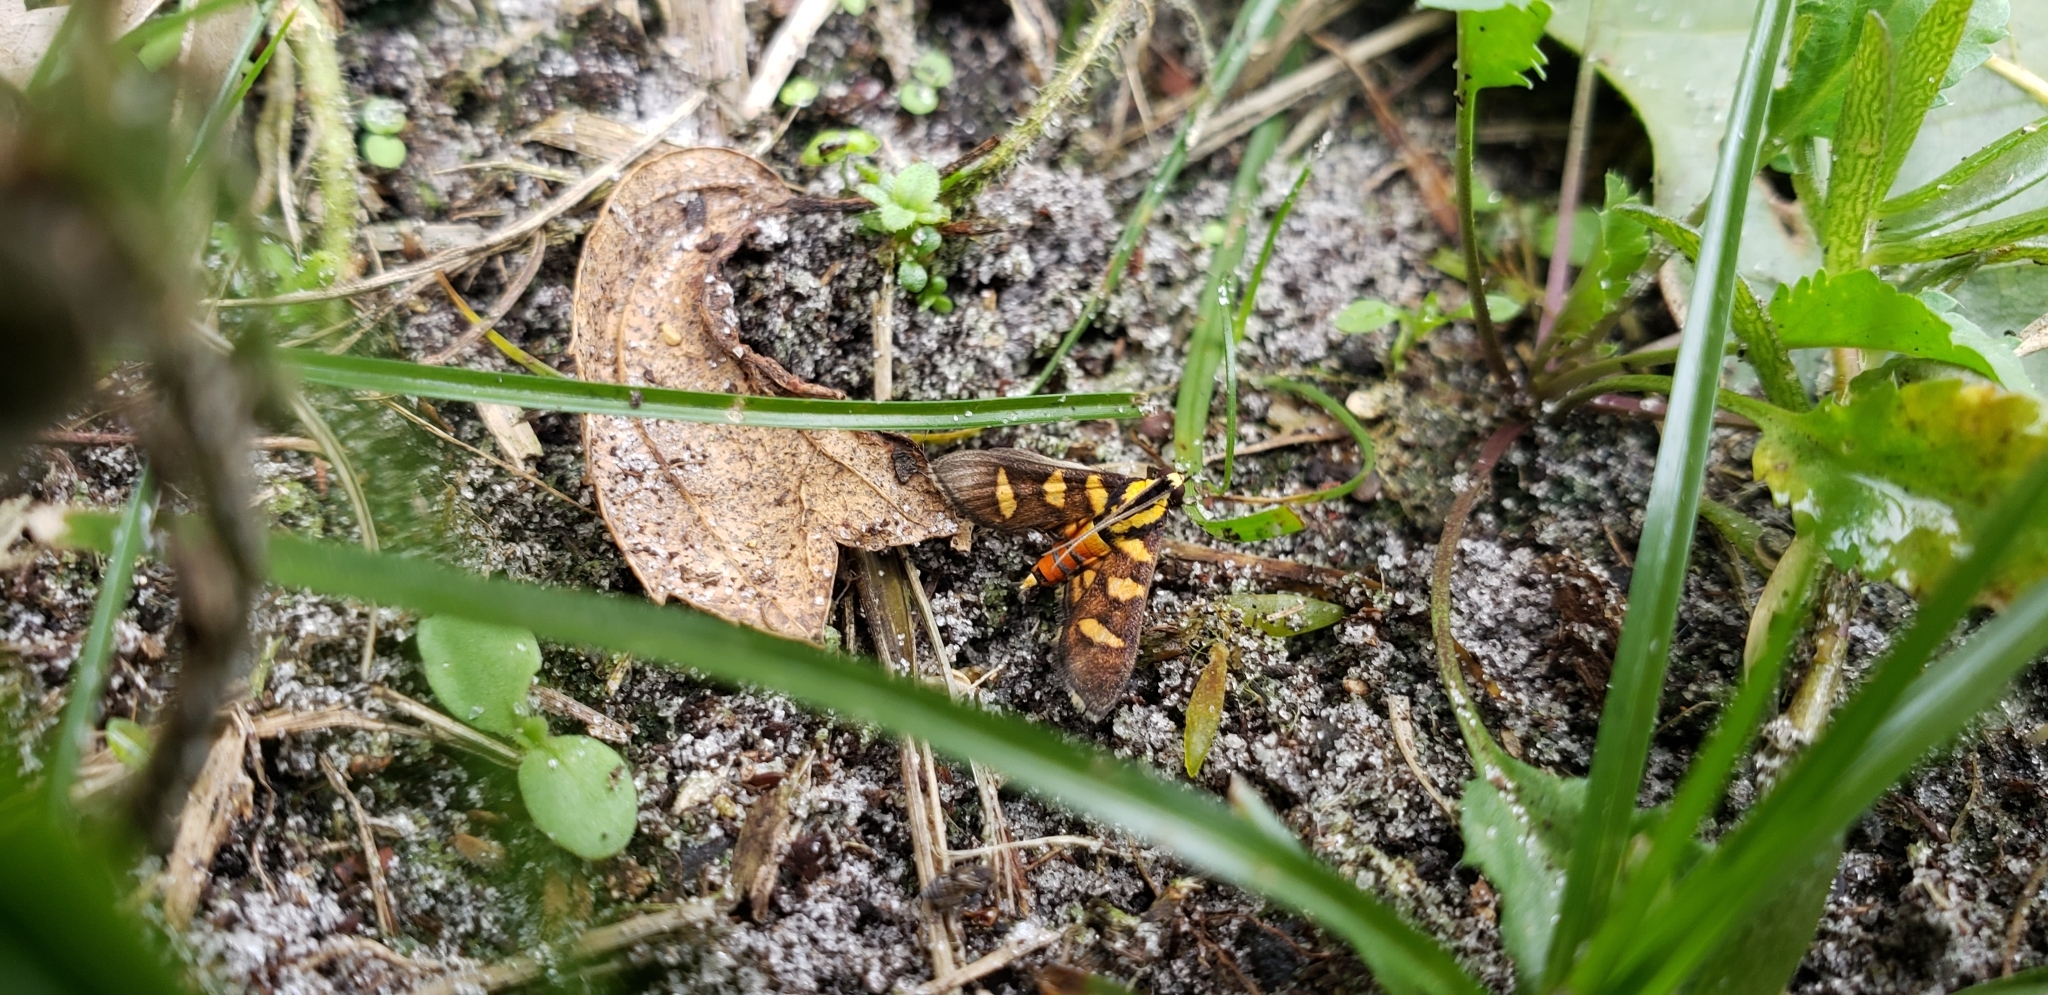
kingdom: Animalia
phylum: Arthropoda
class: Insecta
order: Lepidoptera
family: Crambidae
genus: Syngamia
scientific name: Syngamia florella
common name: Orange-spotted flower moth
